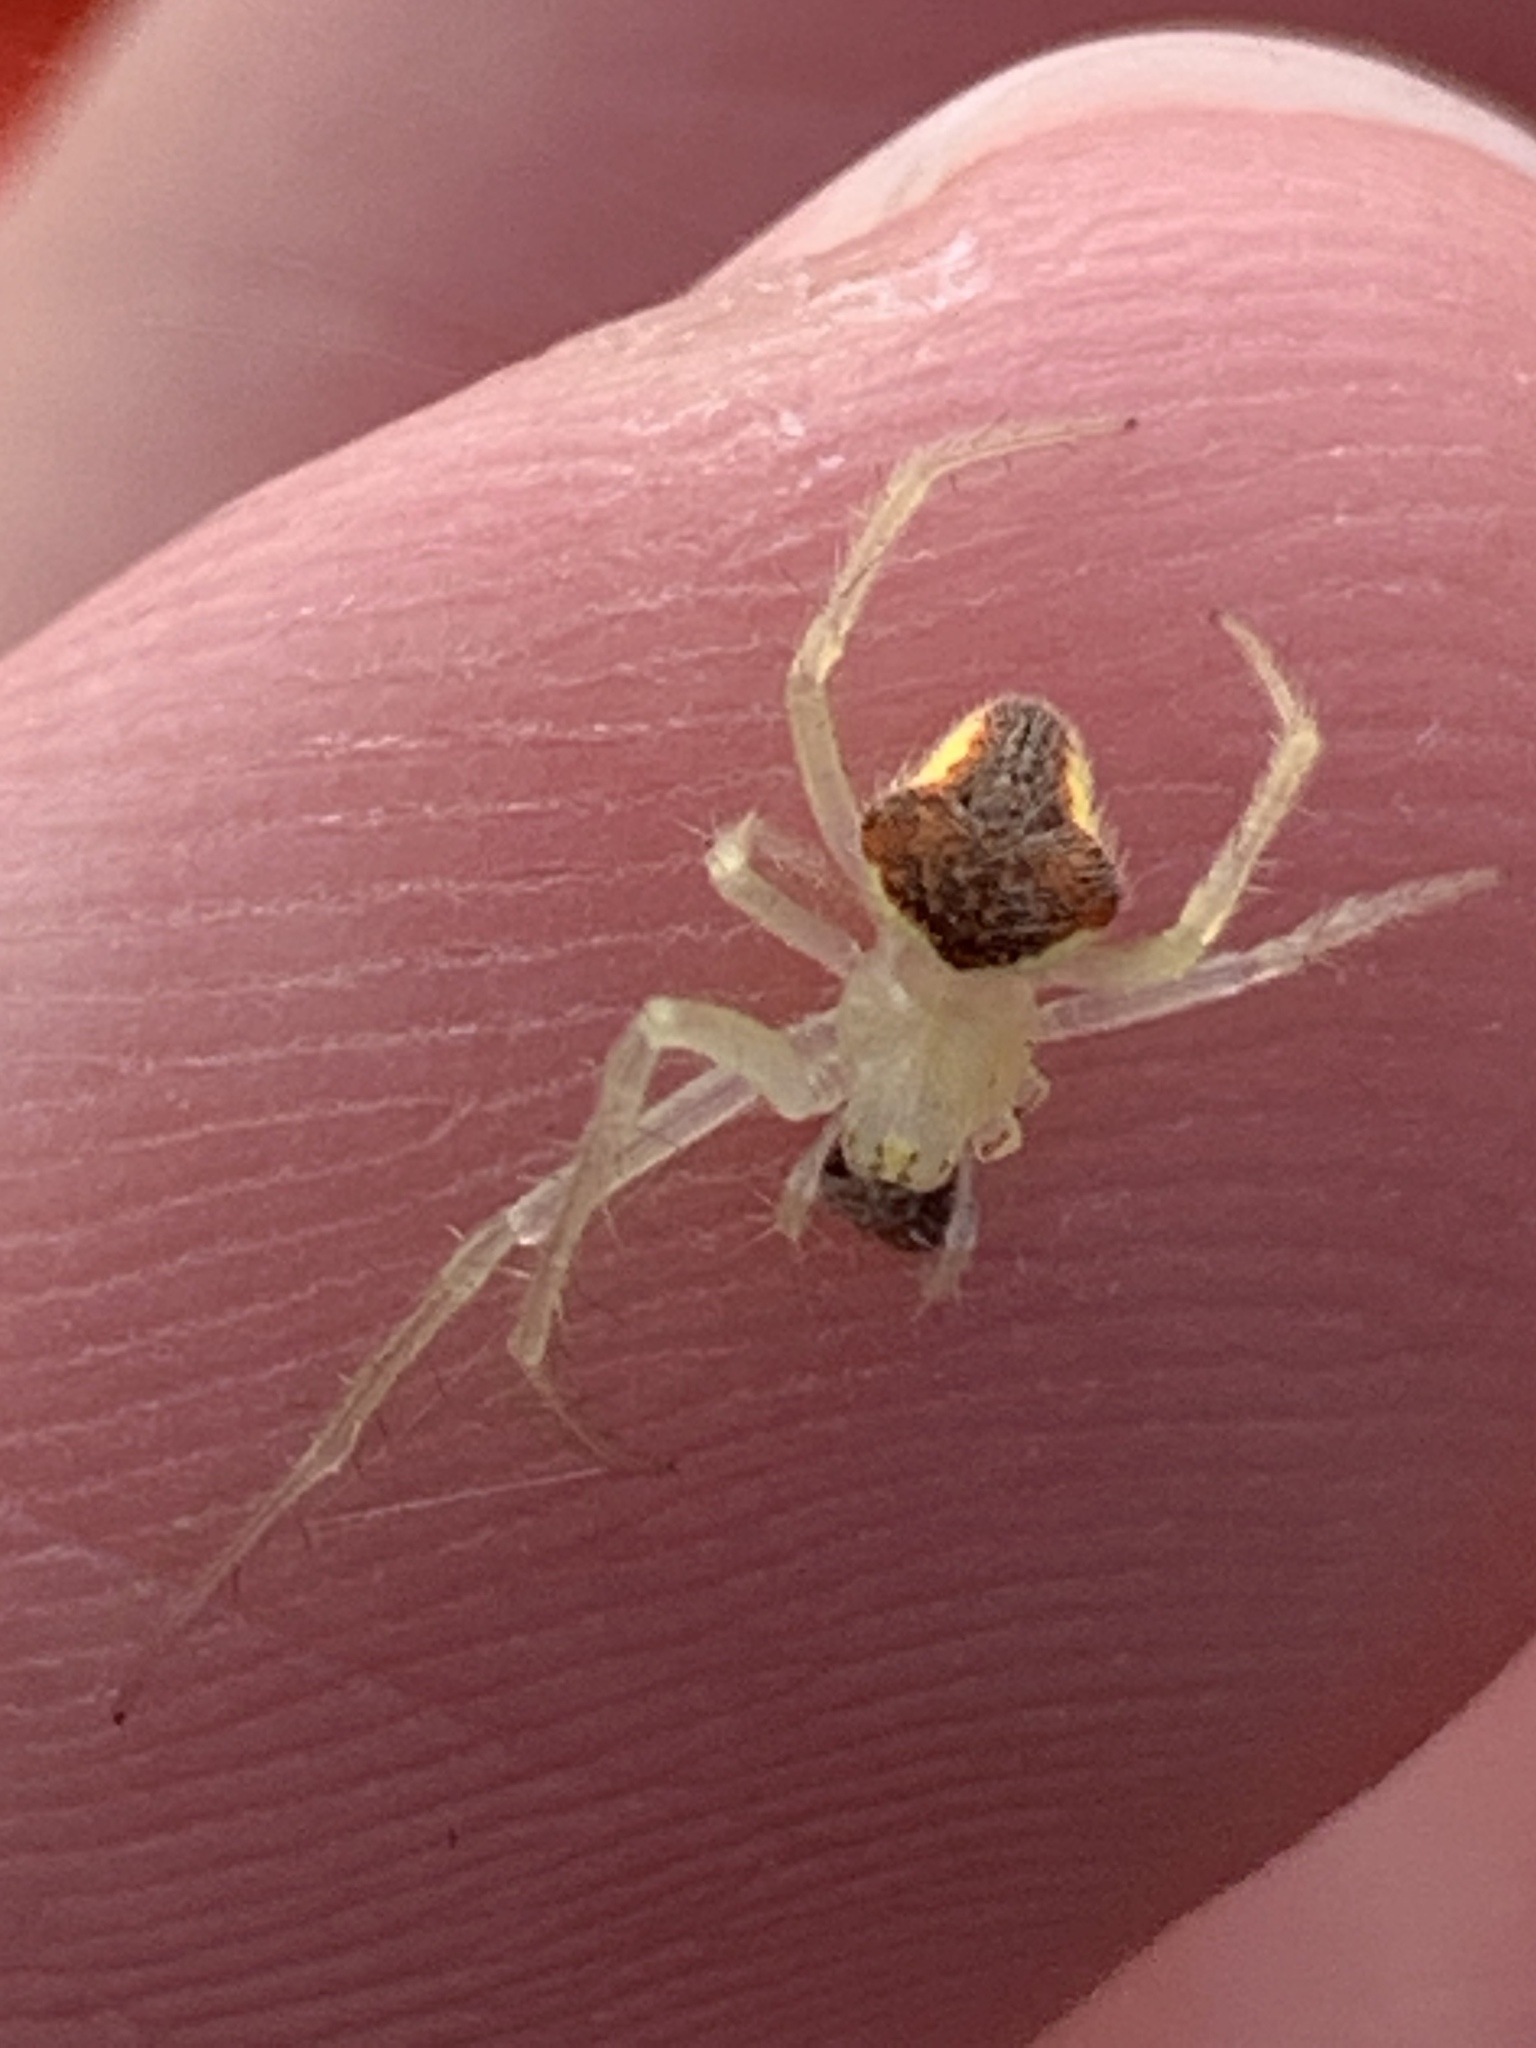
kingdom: Animalia
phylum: Arthropoda
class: Arachnida
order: Araneae
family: Araneidae
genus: Araneus
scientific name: Araneus alboventris
